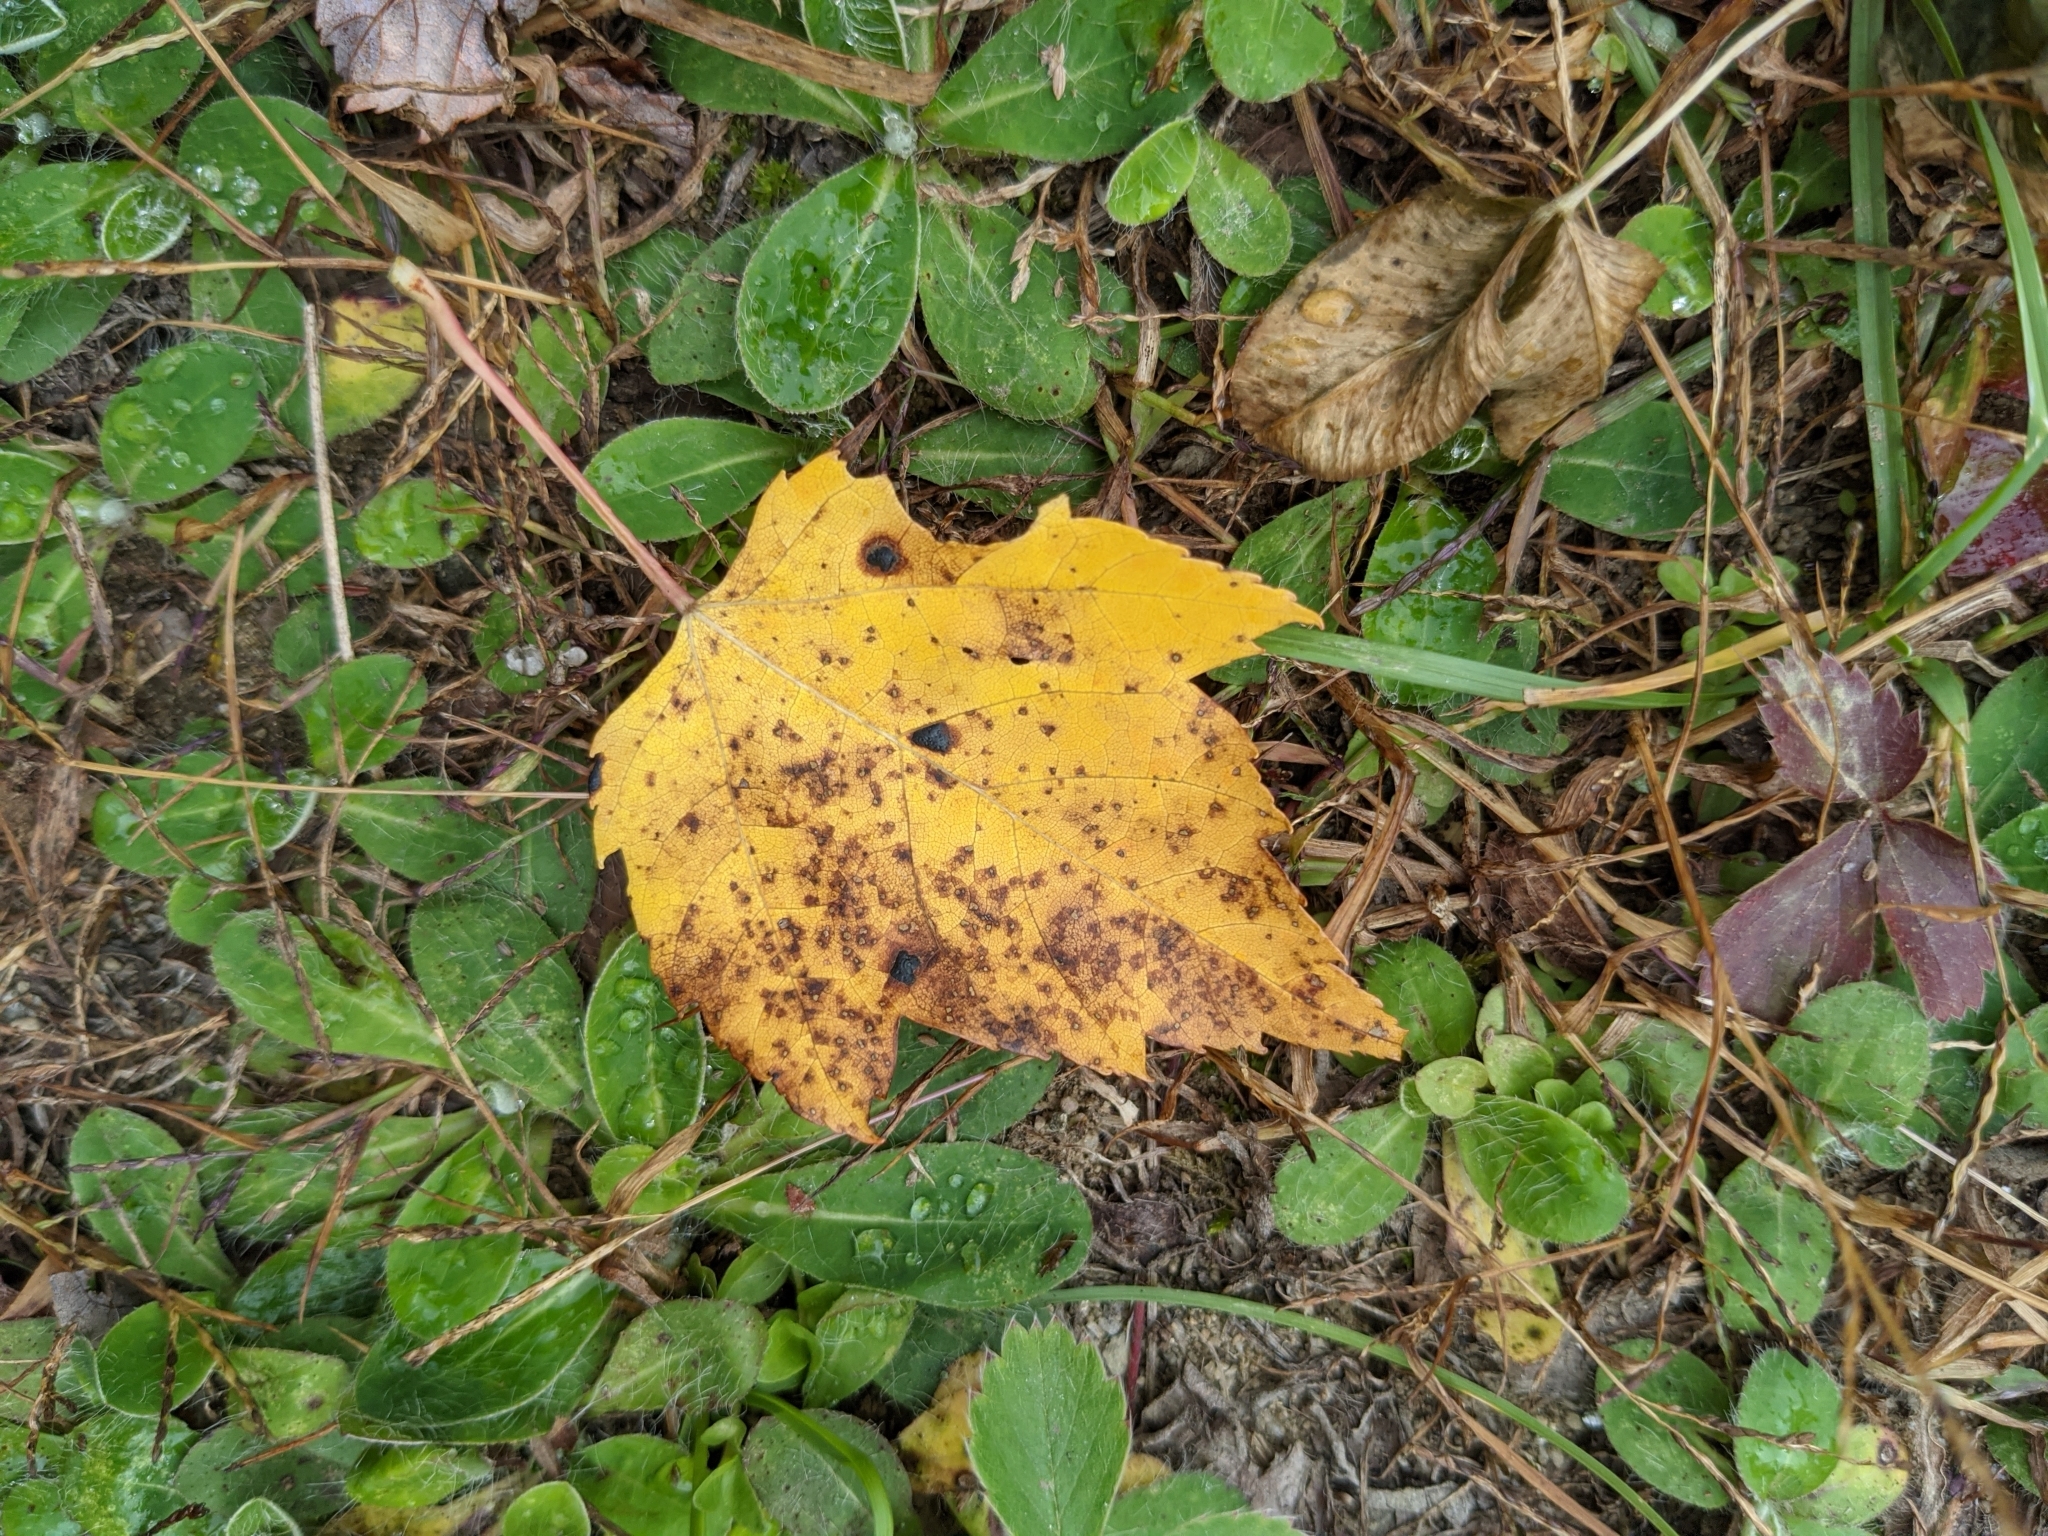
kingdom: Plantae
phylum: Tracheophyta
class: Magnoliopsida
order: Sapindales
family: Sapindaceae
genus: Acer
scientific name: Acer rubrum
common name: Red maple
